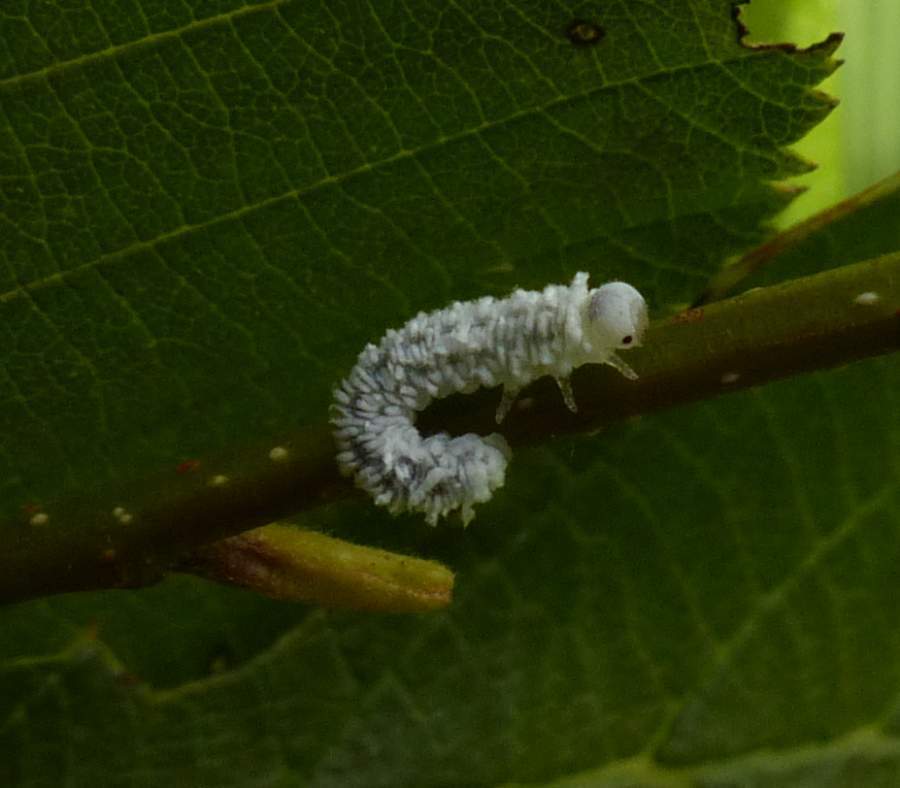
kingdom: Animalia
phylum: Arthropoda
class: Insecta
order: Hymenoptera
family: Tenthredinidae
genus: Eriocampa
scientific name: Eriocampa ovata
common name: Alder wooly sawfly
